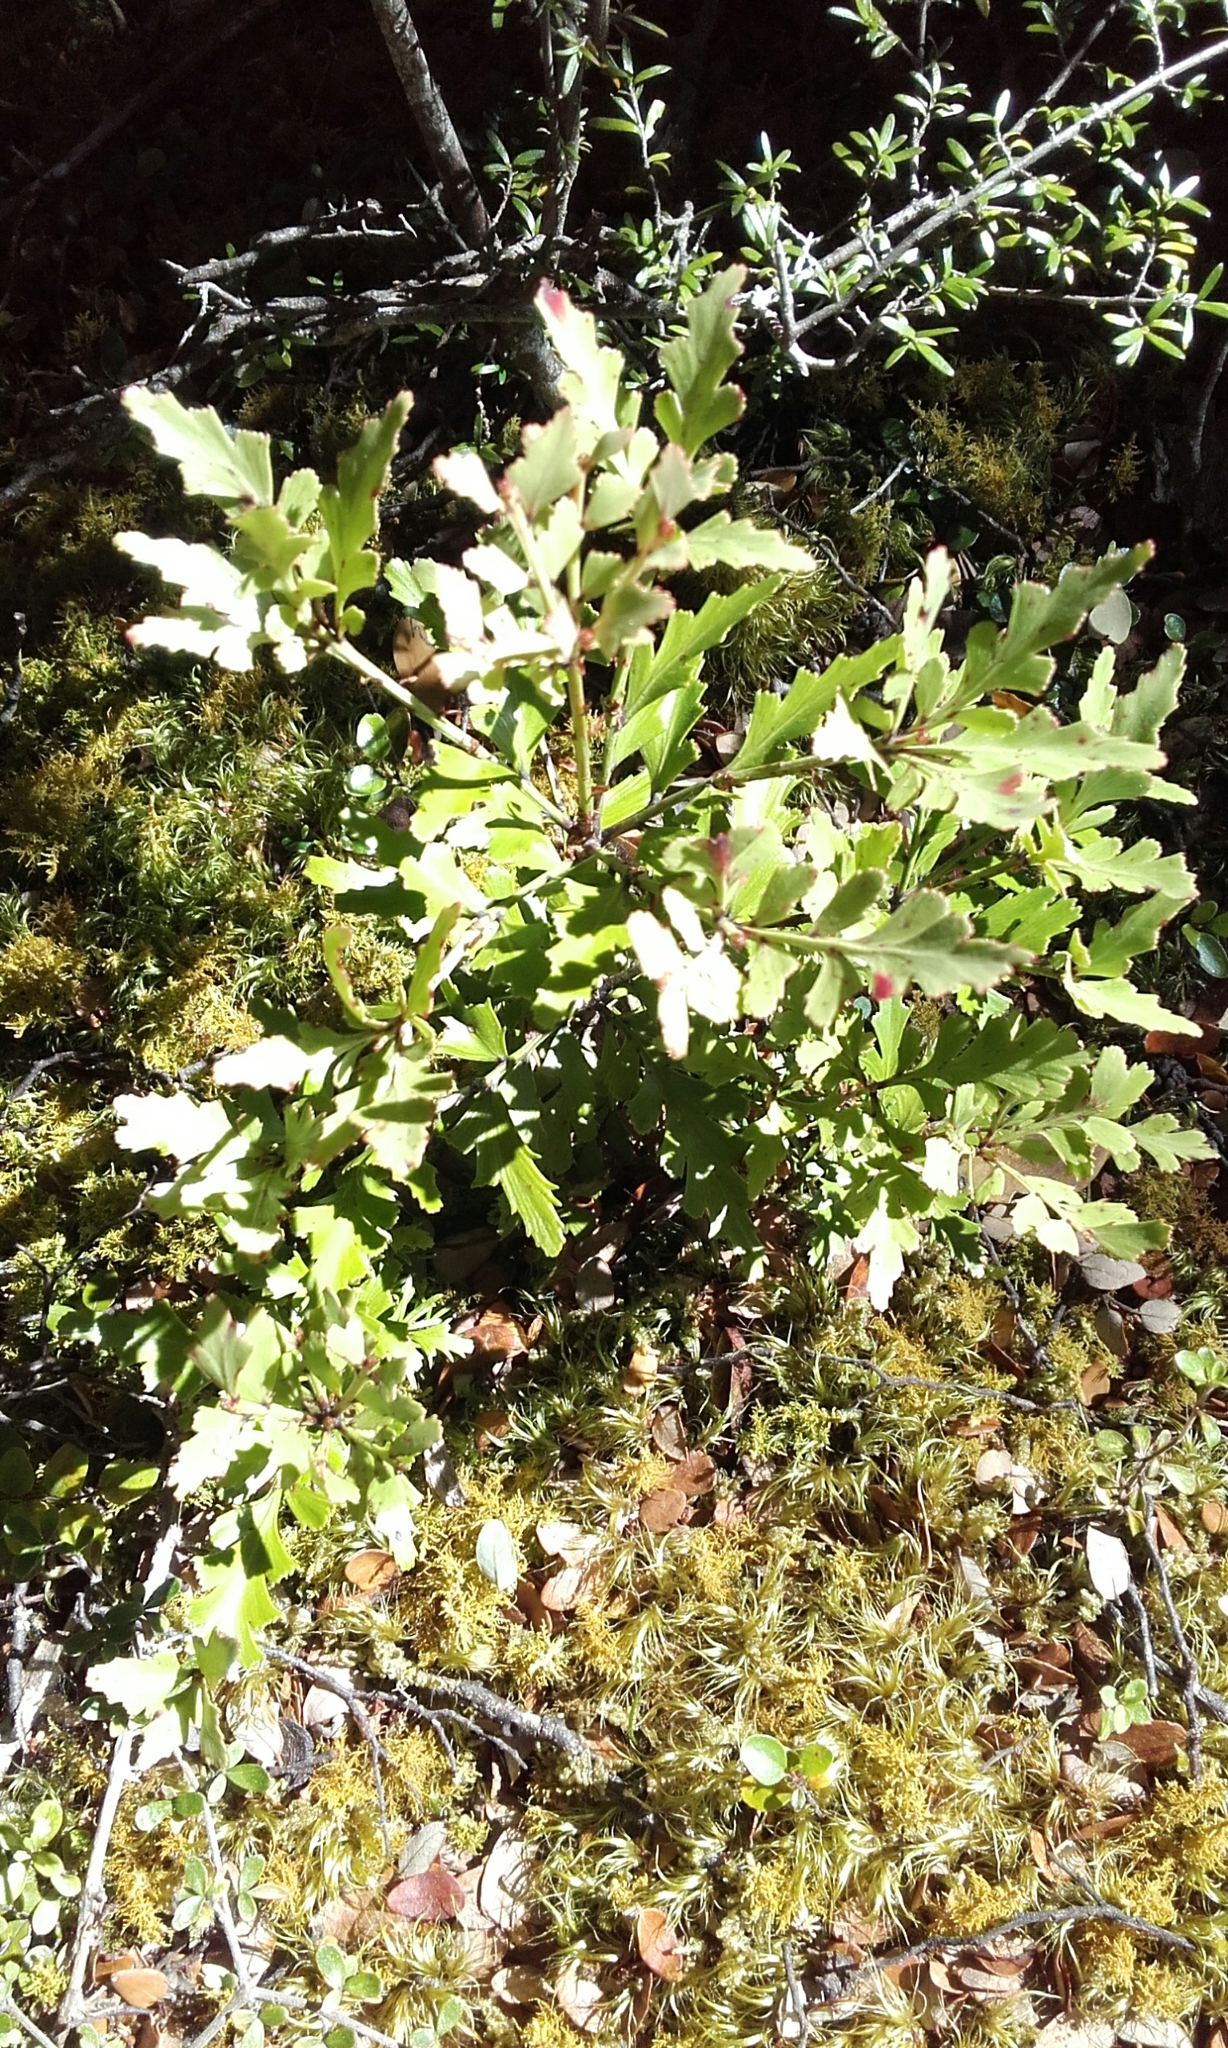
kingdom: Plantae
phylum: Tracheophyta
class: Pinopsida
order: Pinales
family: Phyllocladaceae
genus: Phyllocladus
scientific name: Phyllocladus trichomanoides
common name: Celery pine
